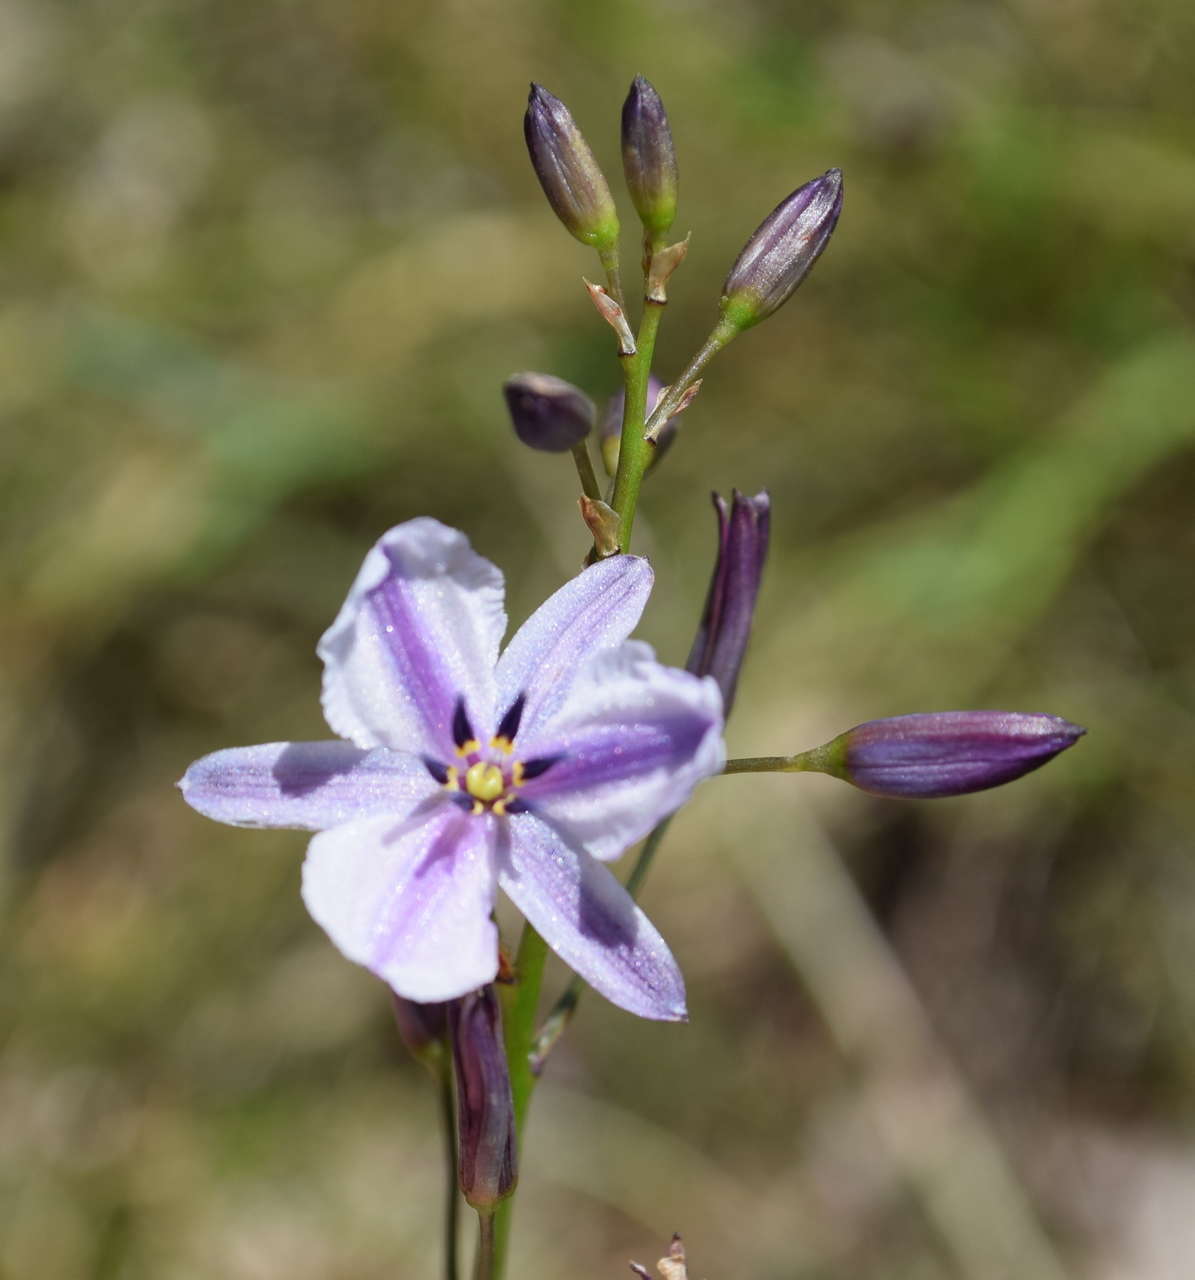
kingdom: Plantae
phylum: Tracheophyta
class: Liliopsida
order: Asparagales
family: Asparagaceae
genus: Arthropodium
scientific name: Arthropodium strictum
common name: Chocolate-lily
